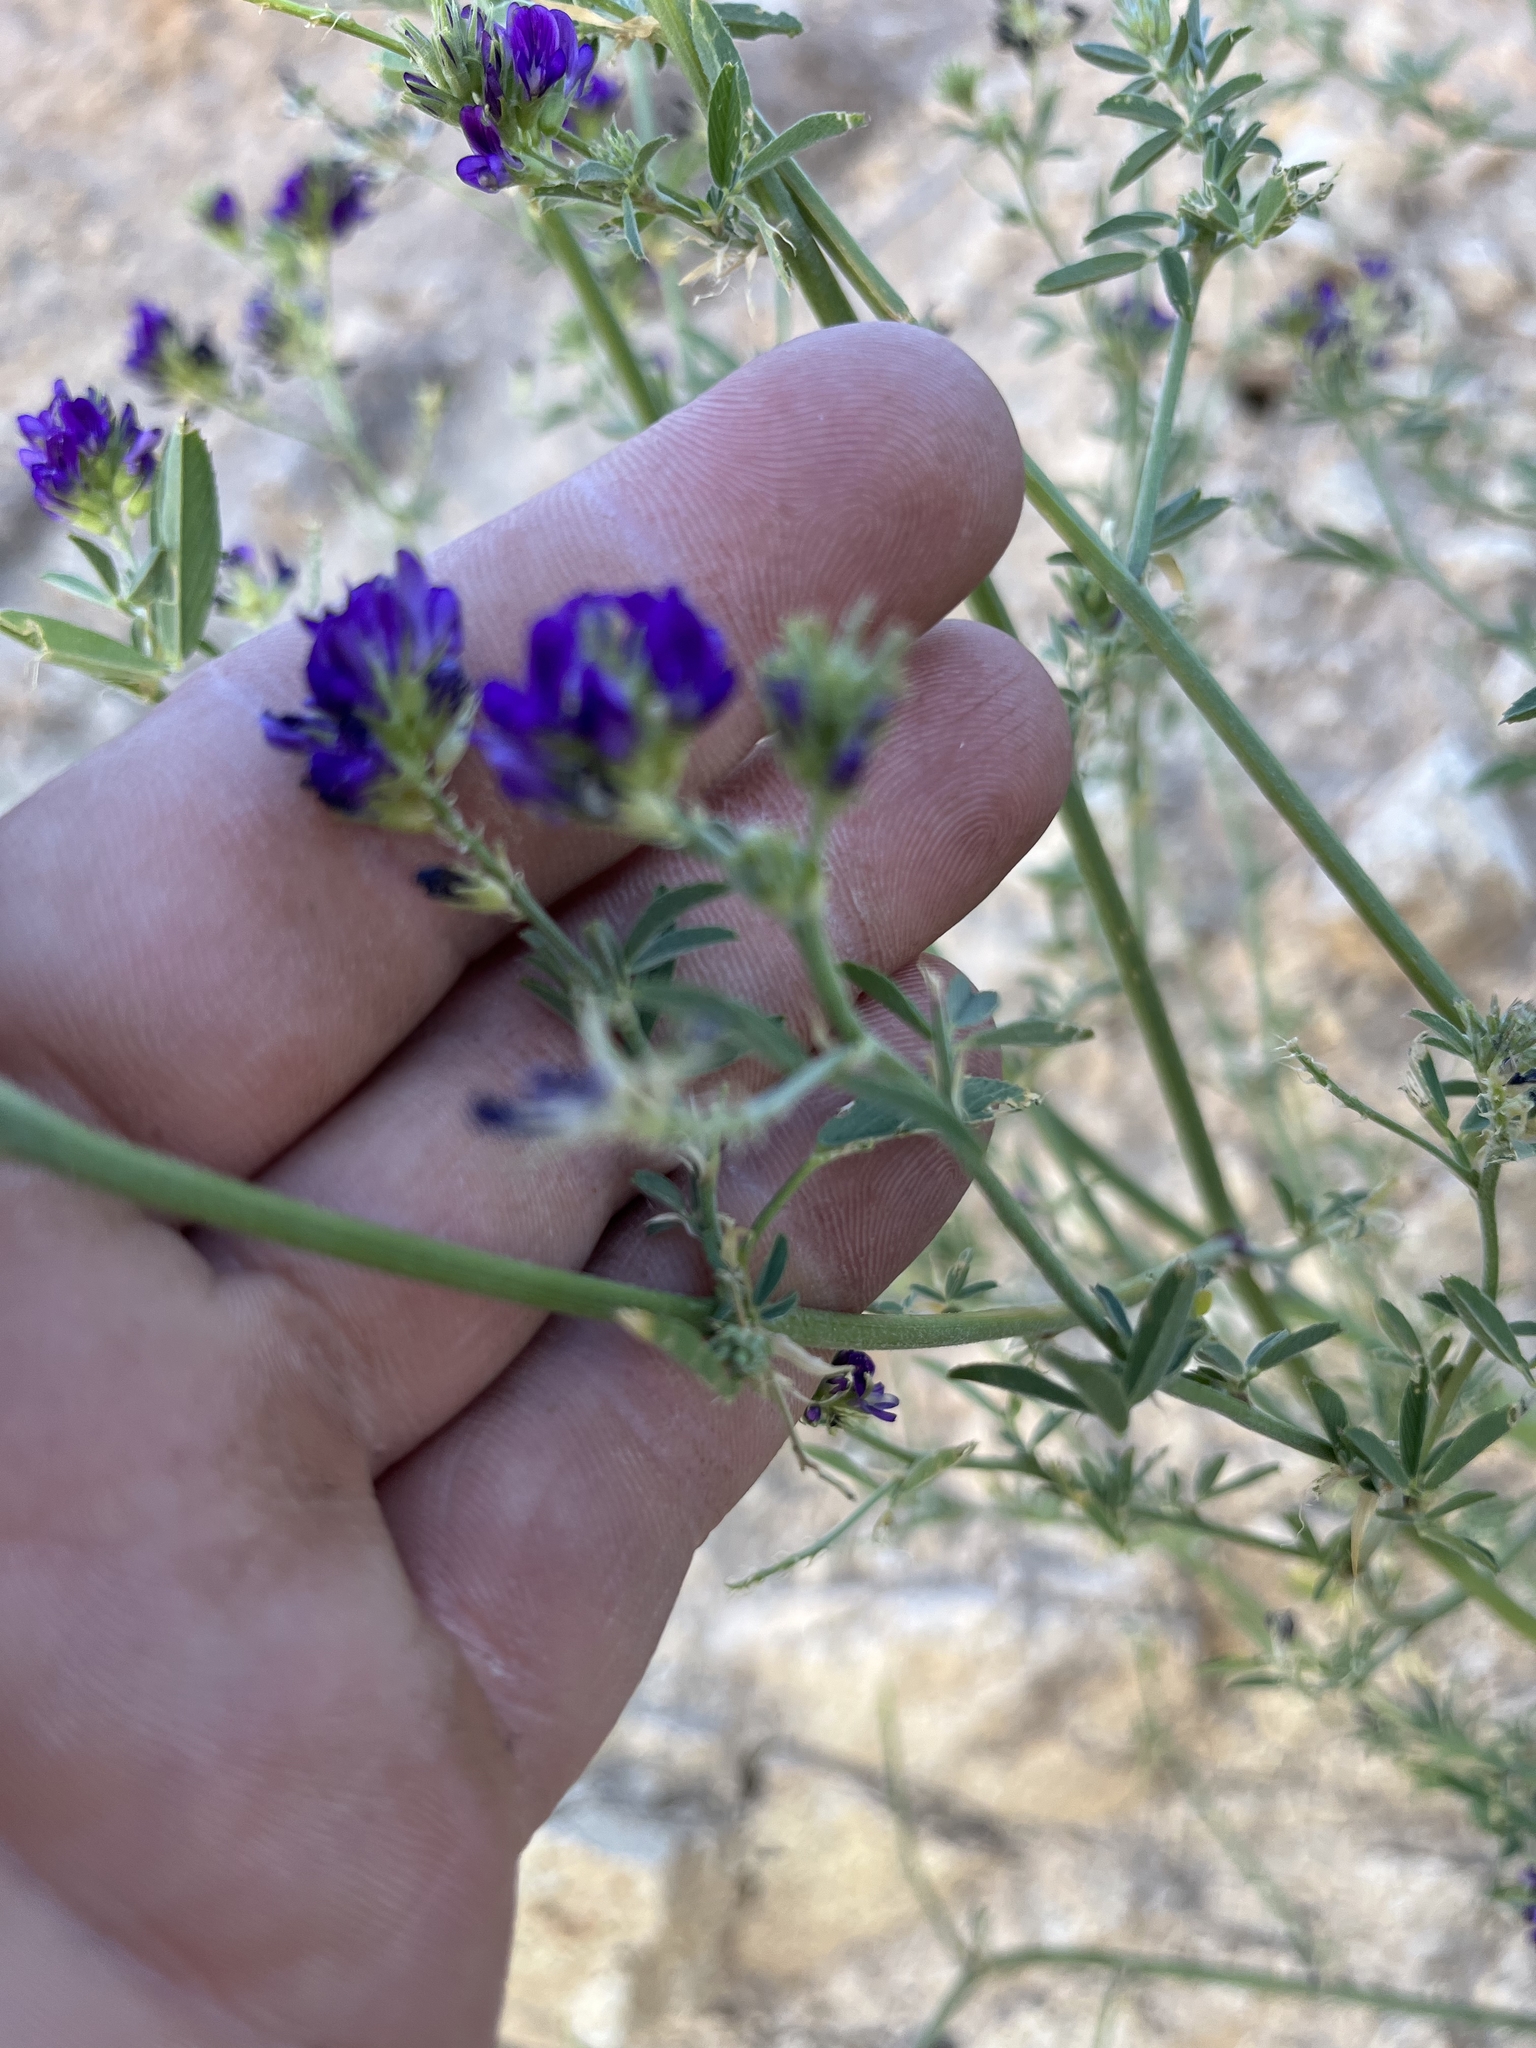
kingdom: Plantae
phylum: Tracheophyta
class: Magnoliopsida
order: Fabales
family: Fabaceae
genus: Medicago
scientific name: Medicago sativa
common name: Alfalfa
